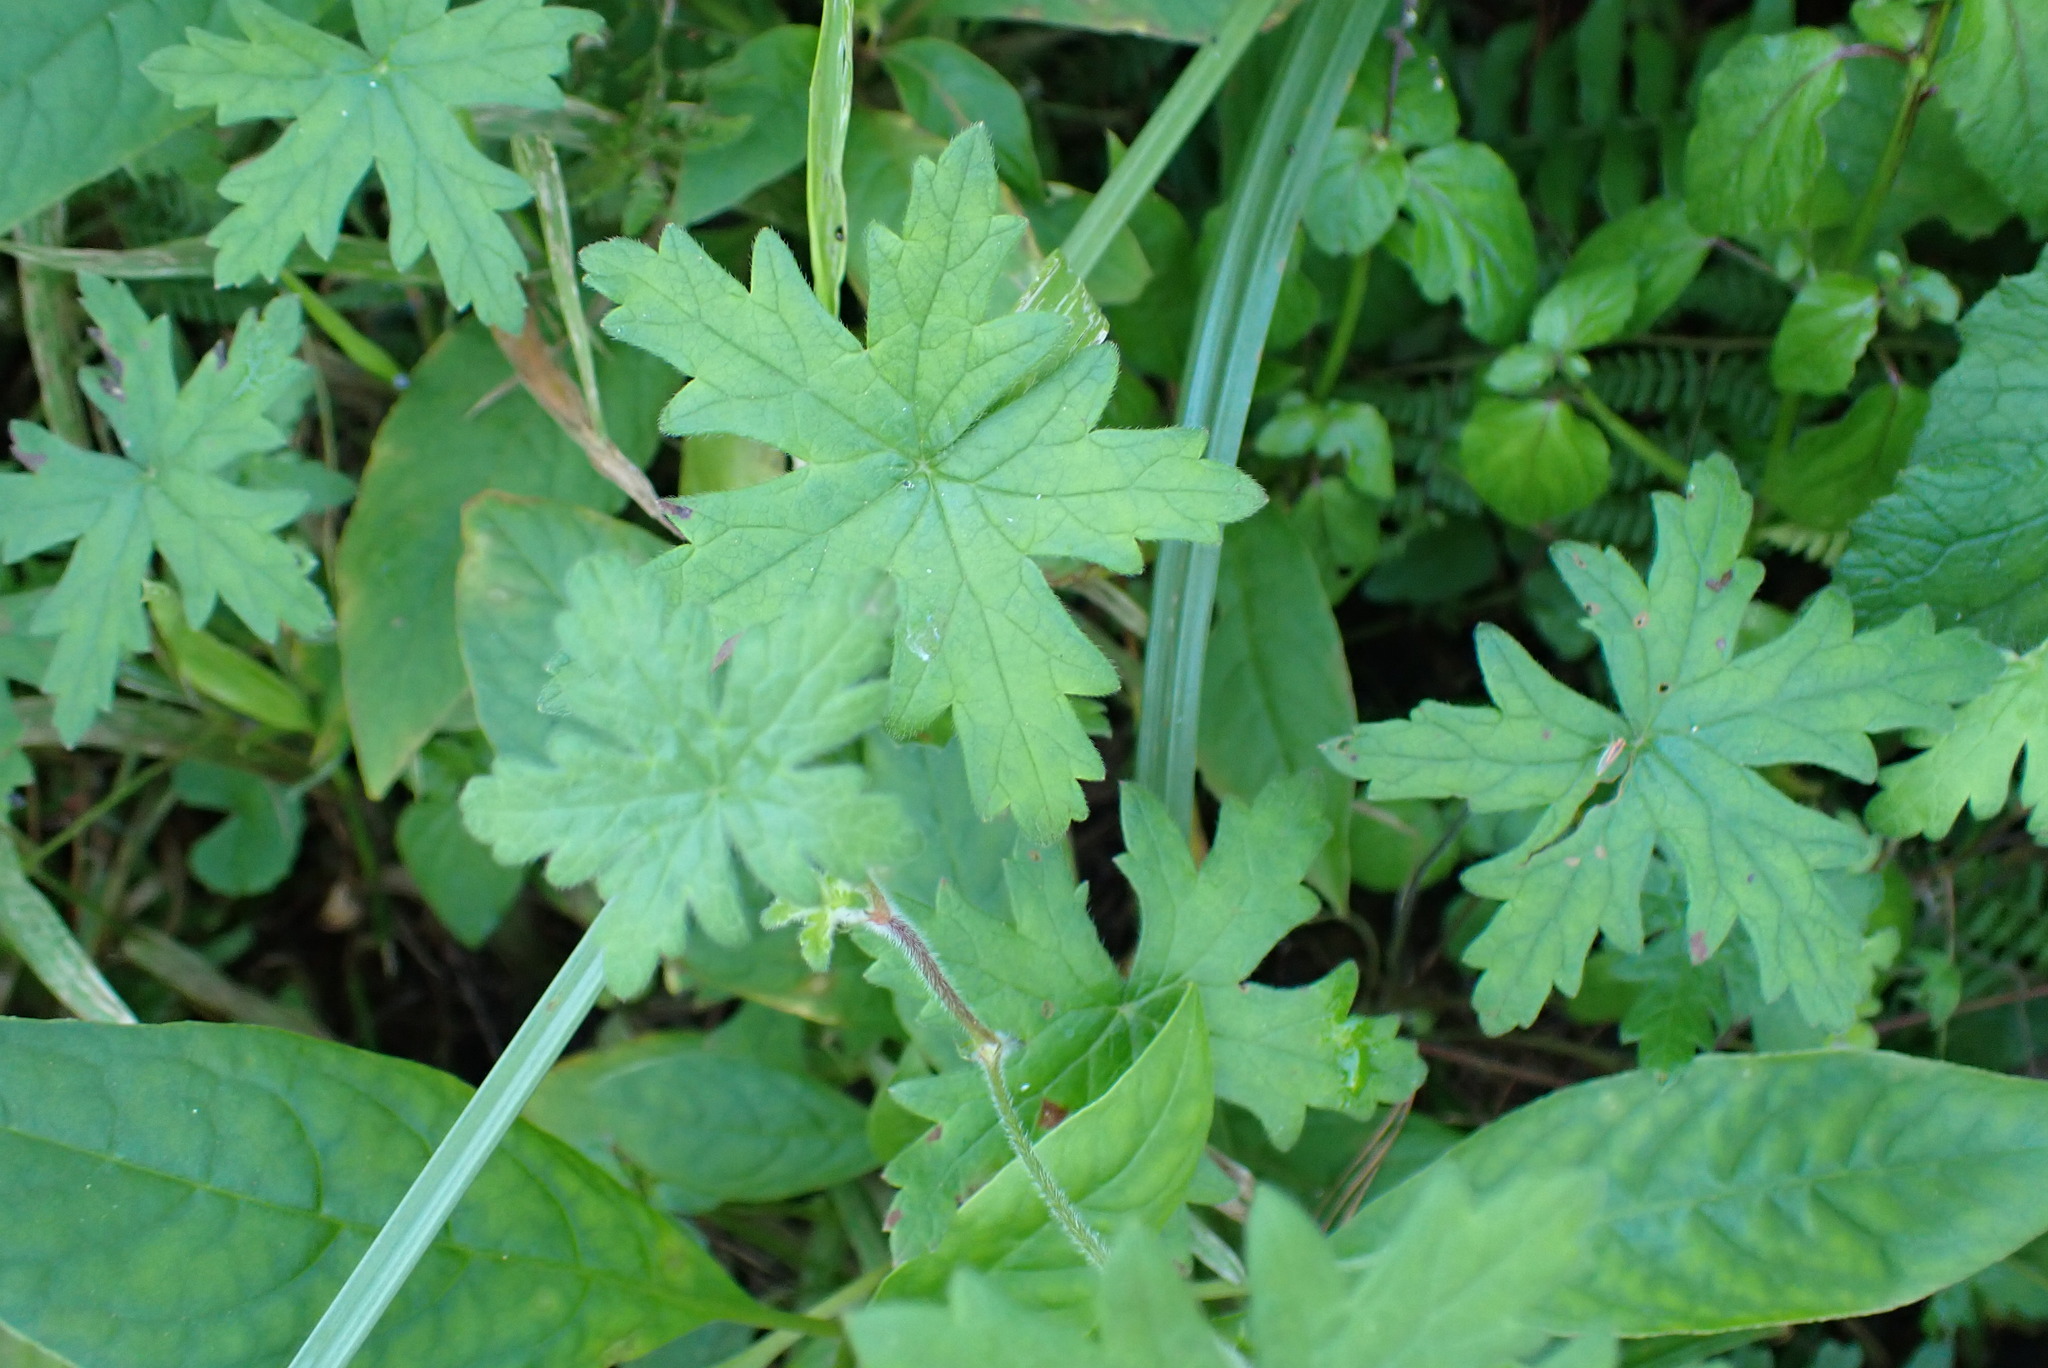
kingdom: Plantae
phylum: Tracheophyta
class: Magnoliopsida
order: Geraniales
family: Geraniaceae
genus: Geranium
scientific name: Geranium ornithopodon
